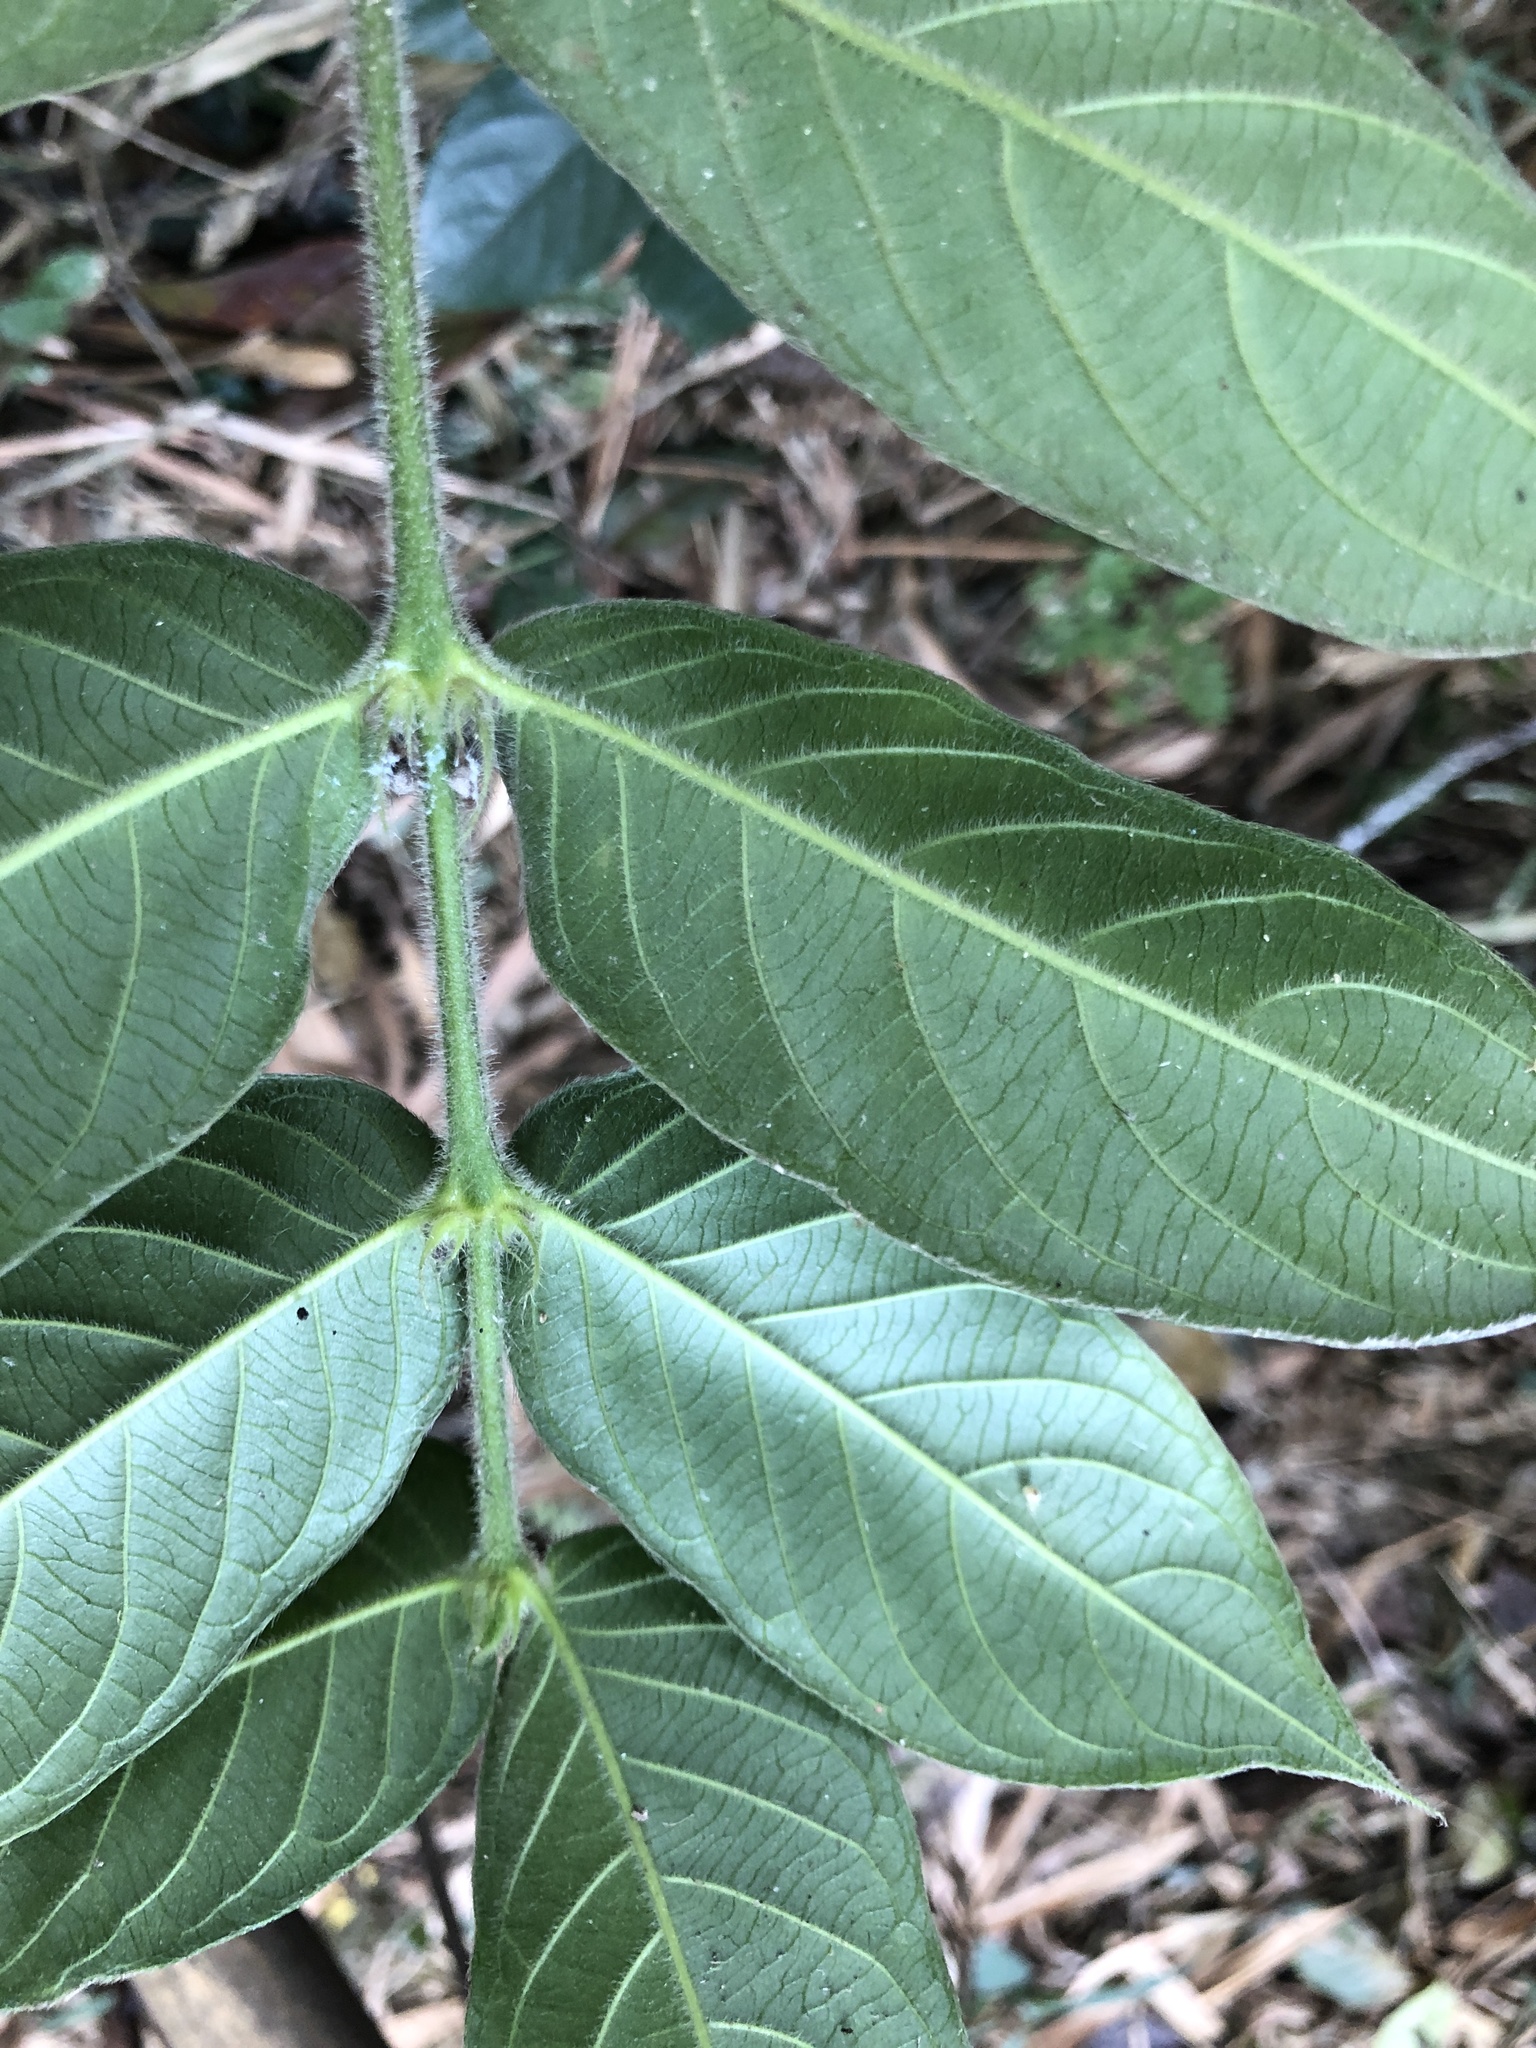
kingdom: Plantae
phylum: Tracheophyta
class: Magnoliopsida
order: Gentianales
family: Rubiaceae
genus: Lasianthus
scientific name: Lasianthus attenuatus
